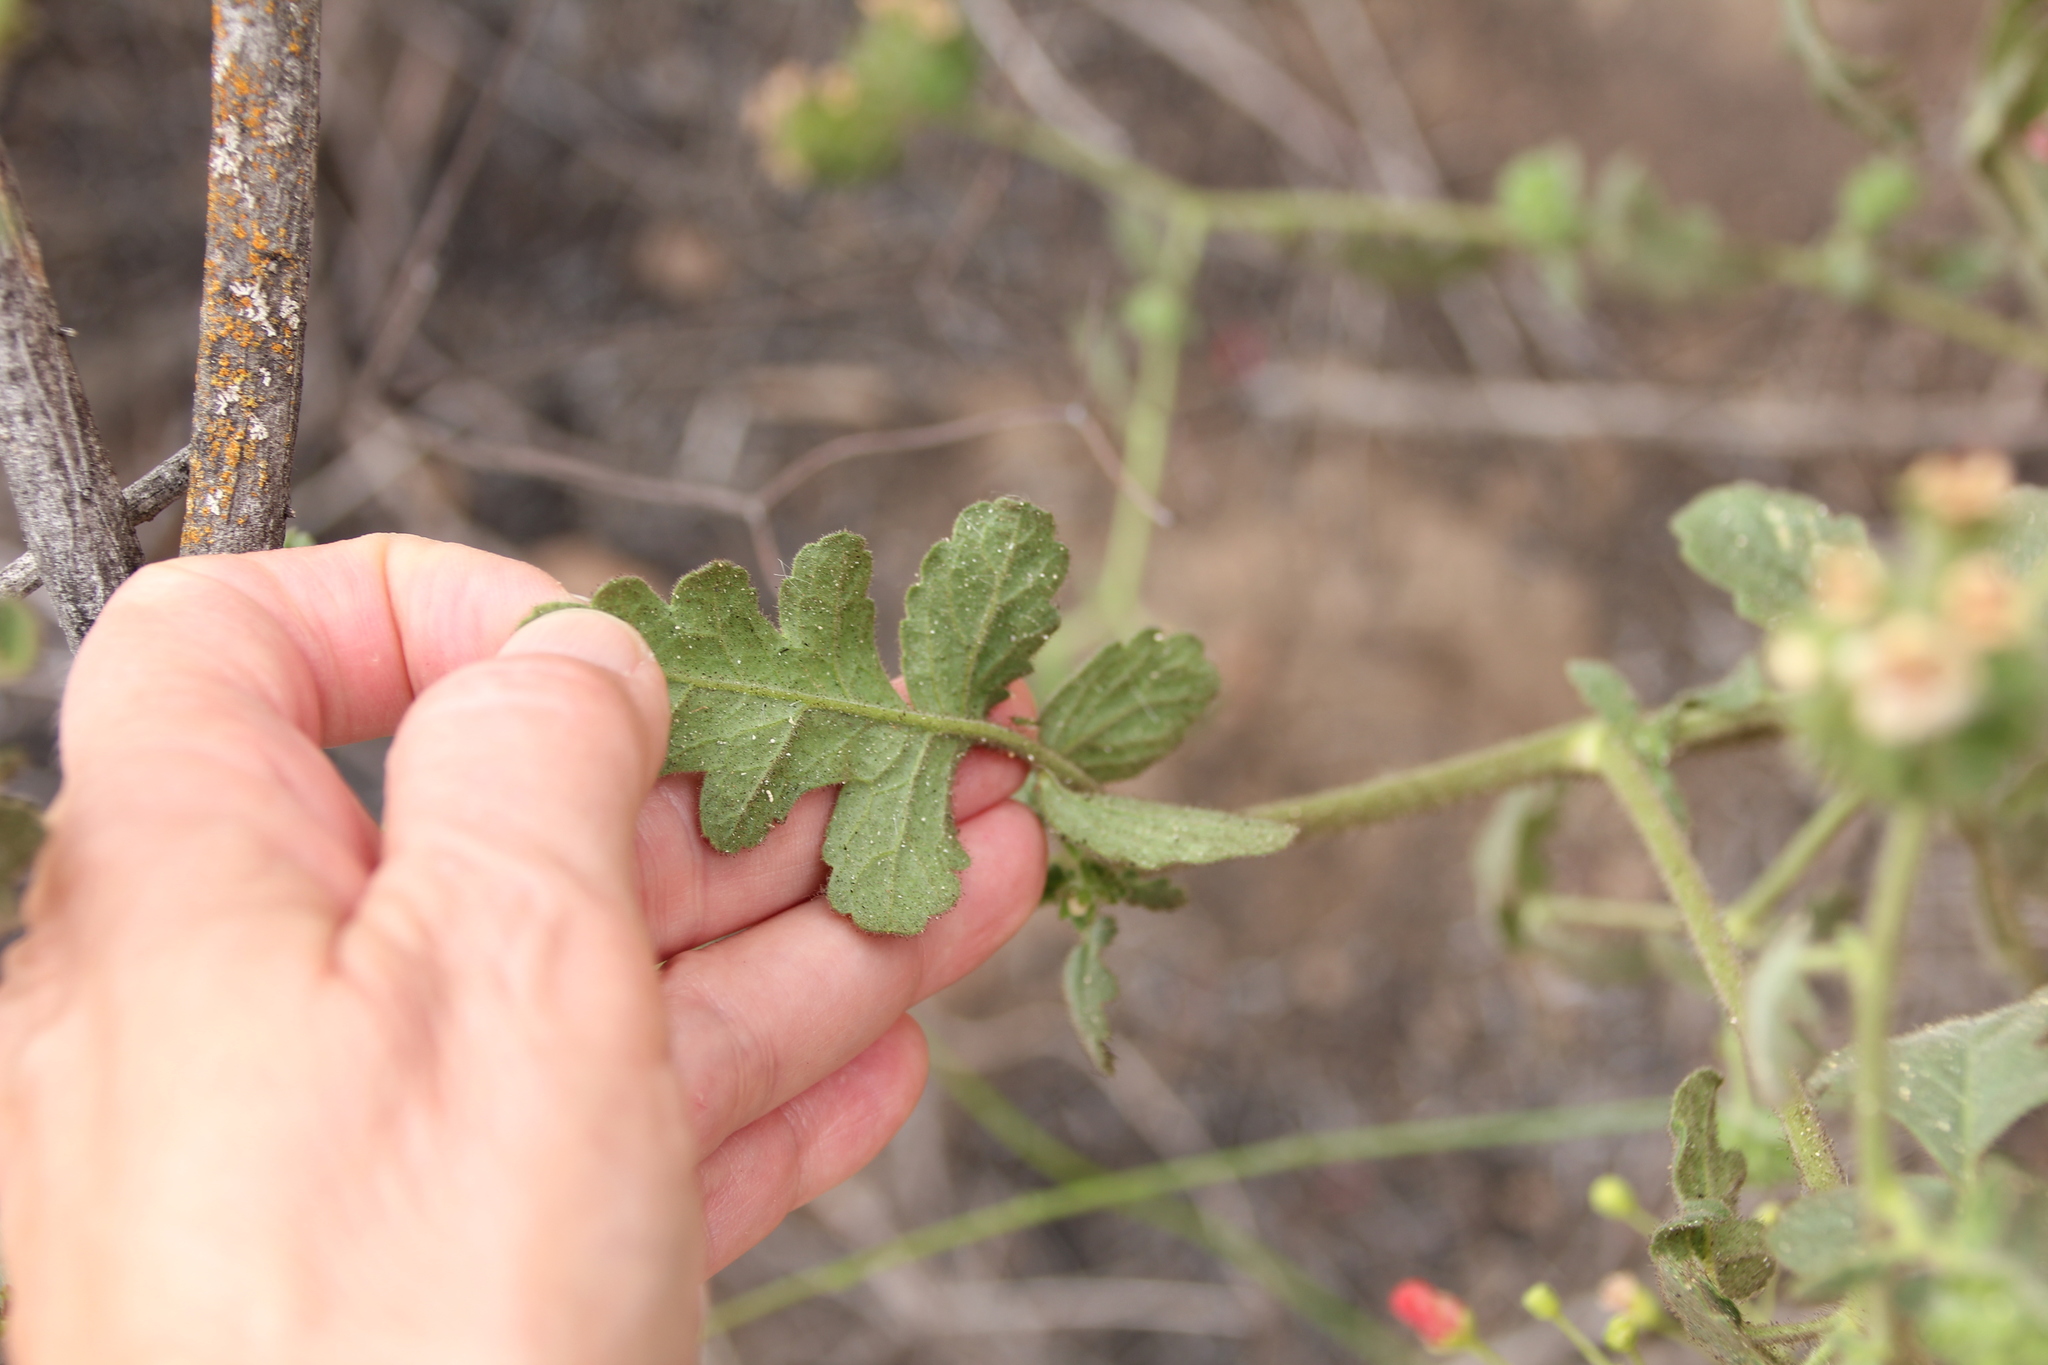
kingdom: Plantae
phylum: Tracheophyta
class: Magnoliopsida
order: Boraginales
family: Hydrophyllaceae
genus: Phacelia
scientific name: Phacelia ramosissima
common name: Branching phacelia
